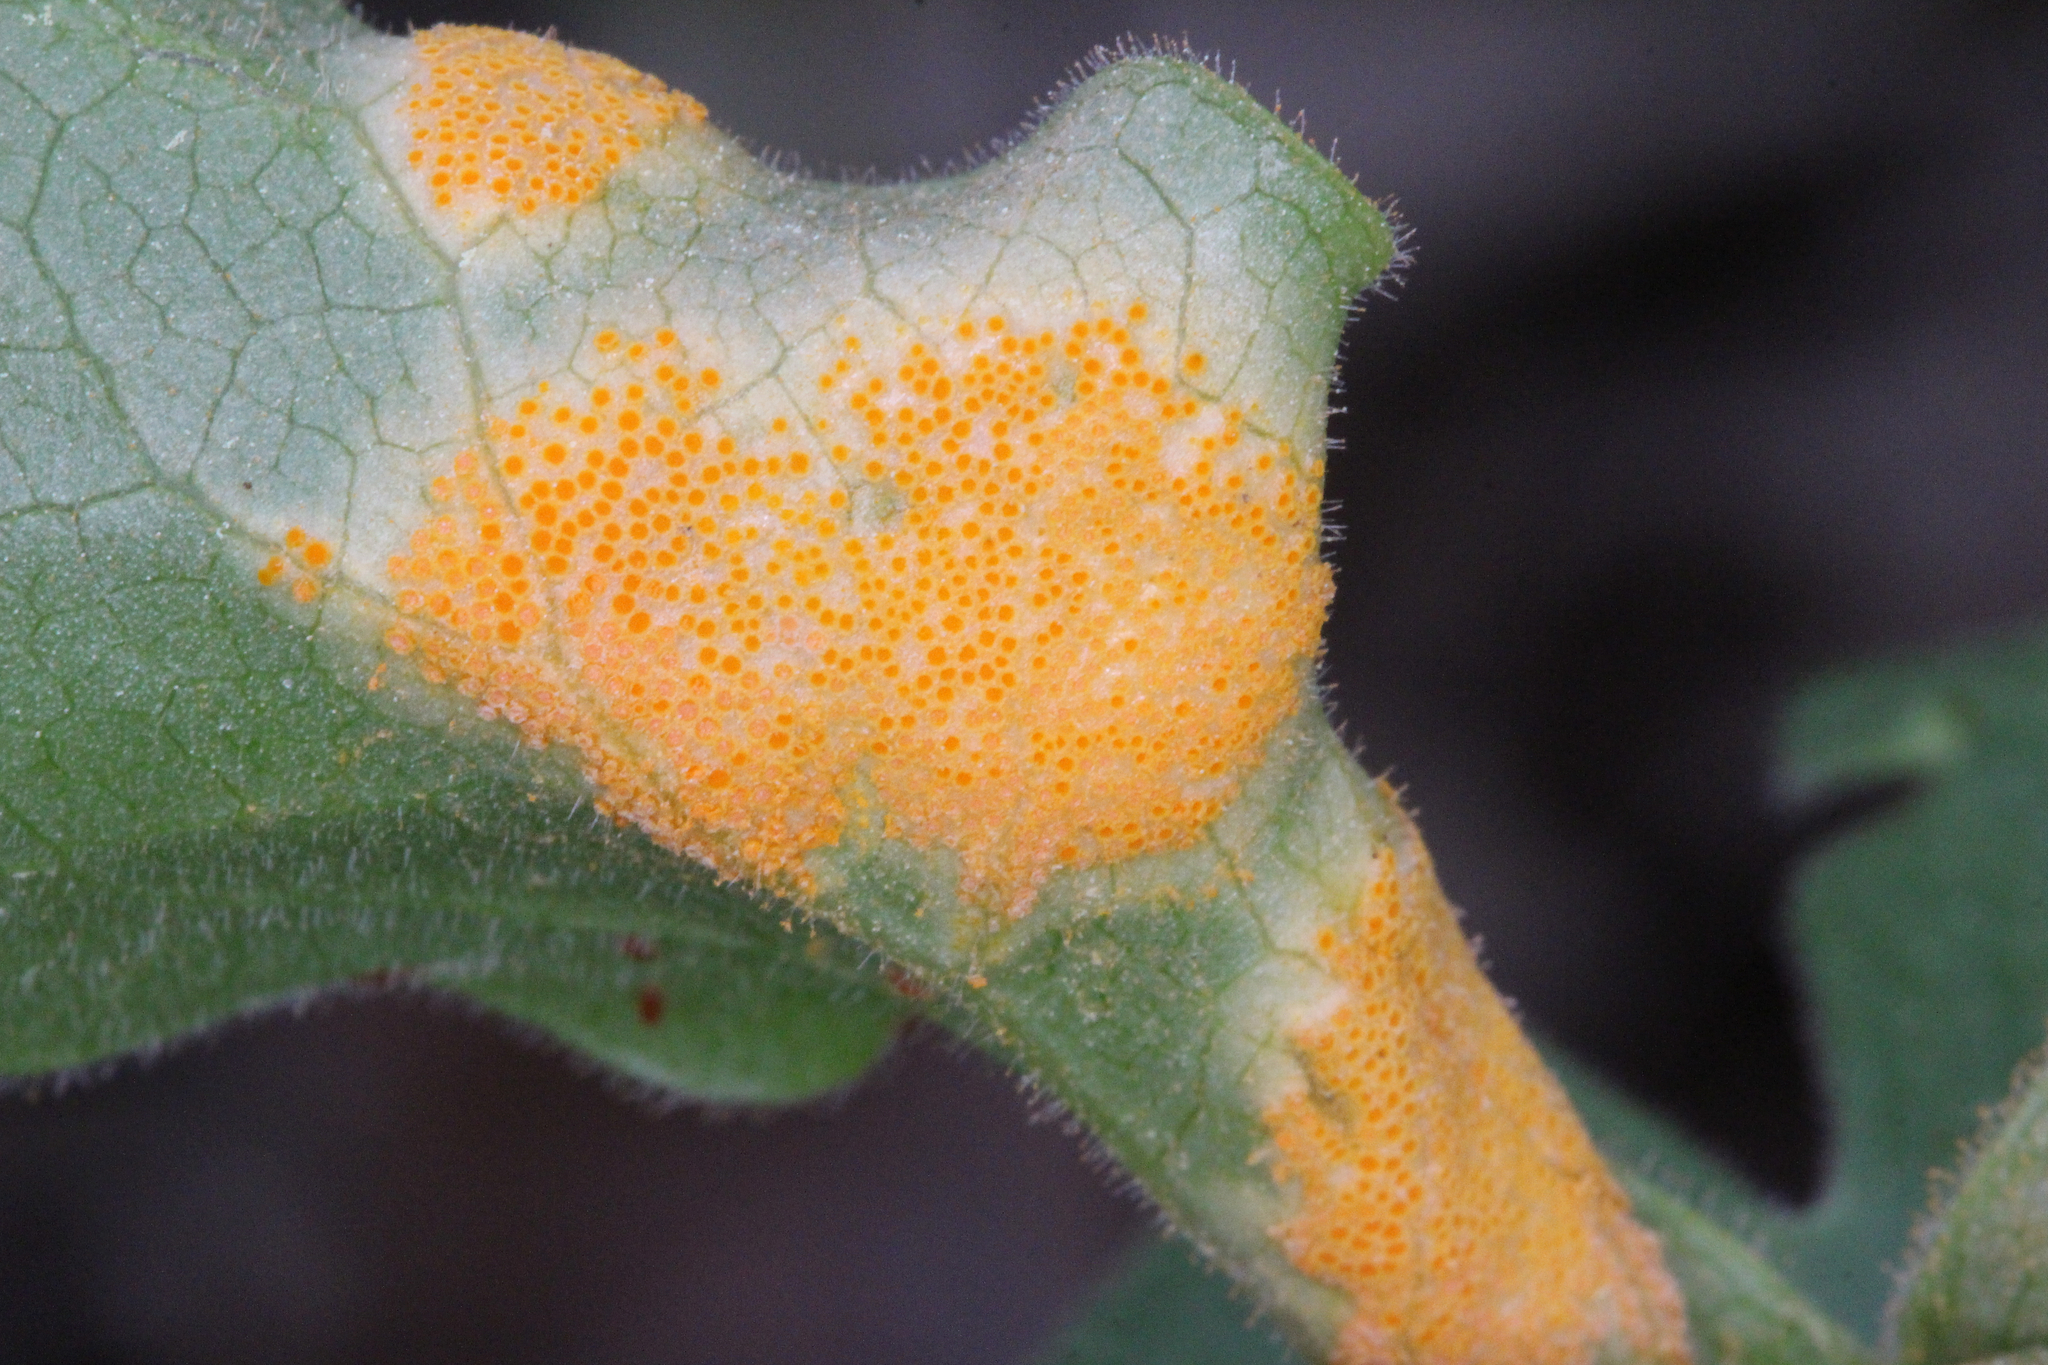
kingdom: Fungi
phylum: Basidiomycota
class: Pucciniomycetes
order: Pucciniales
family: Pucciniaceae
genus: Puccinia
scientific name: Puccinia podophylli
